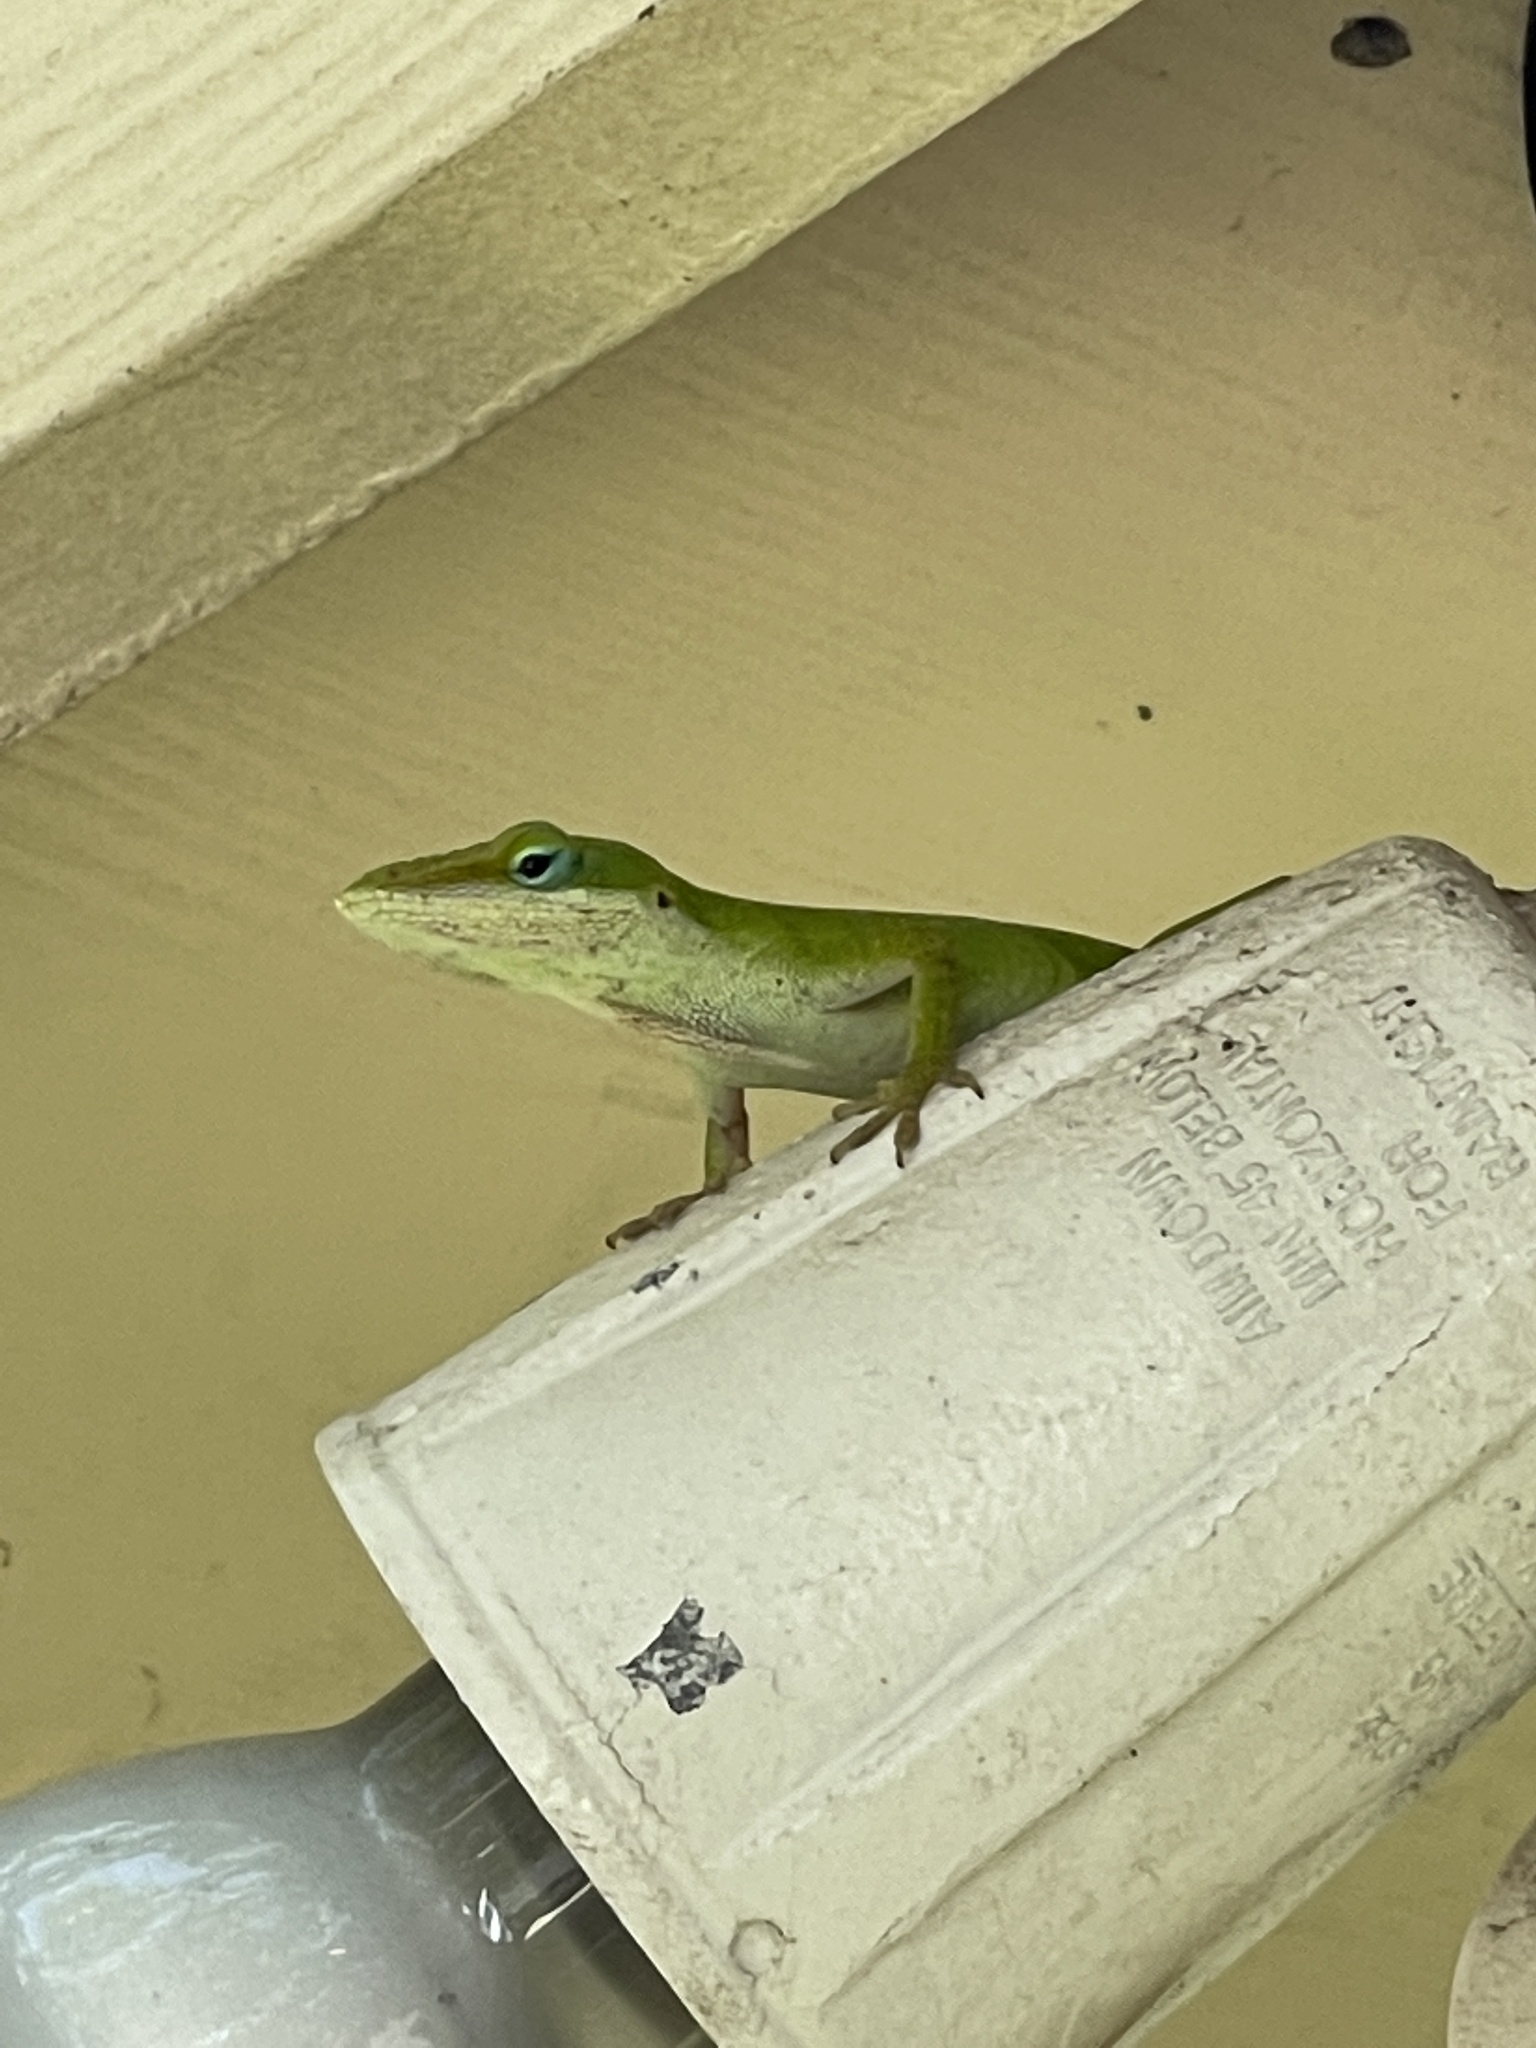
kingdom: Animalia
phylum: Chordata
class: Squamata
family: Dactyloidae
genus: Anolis
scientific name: Anolis carolinensis
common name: Green anole
